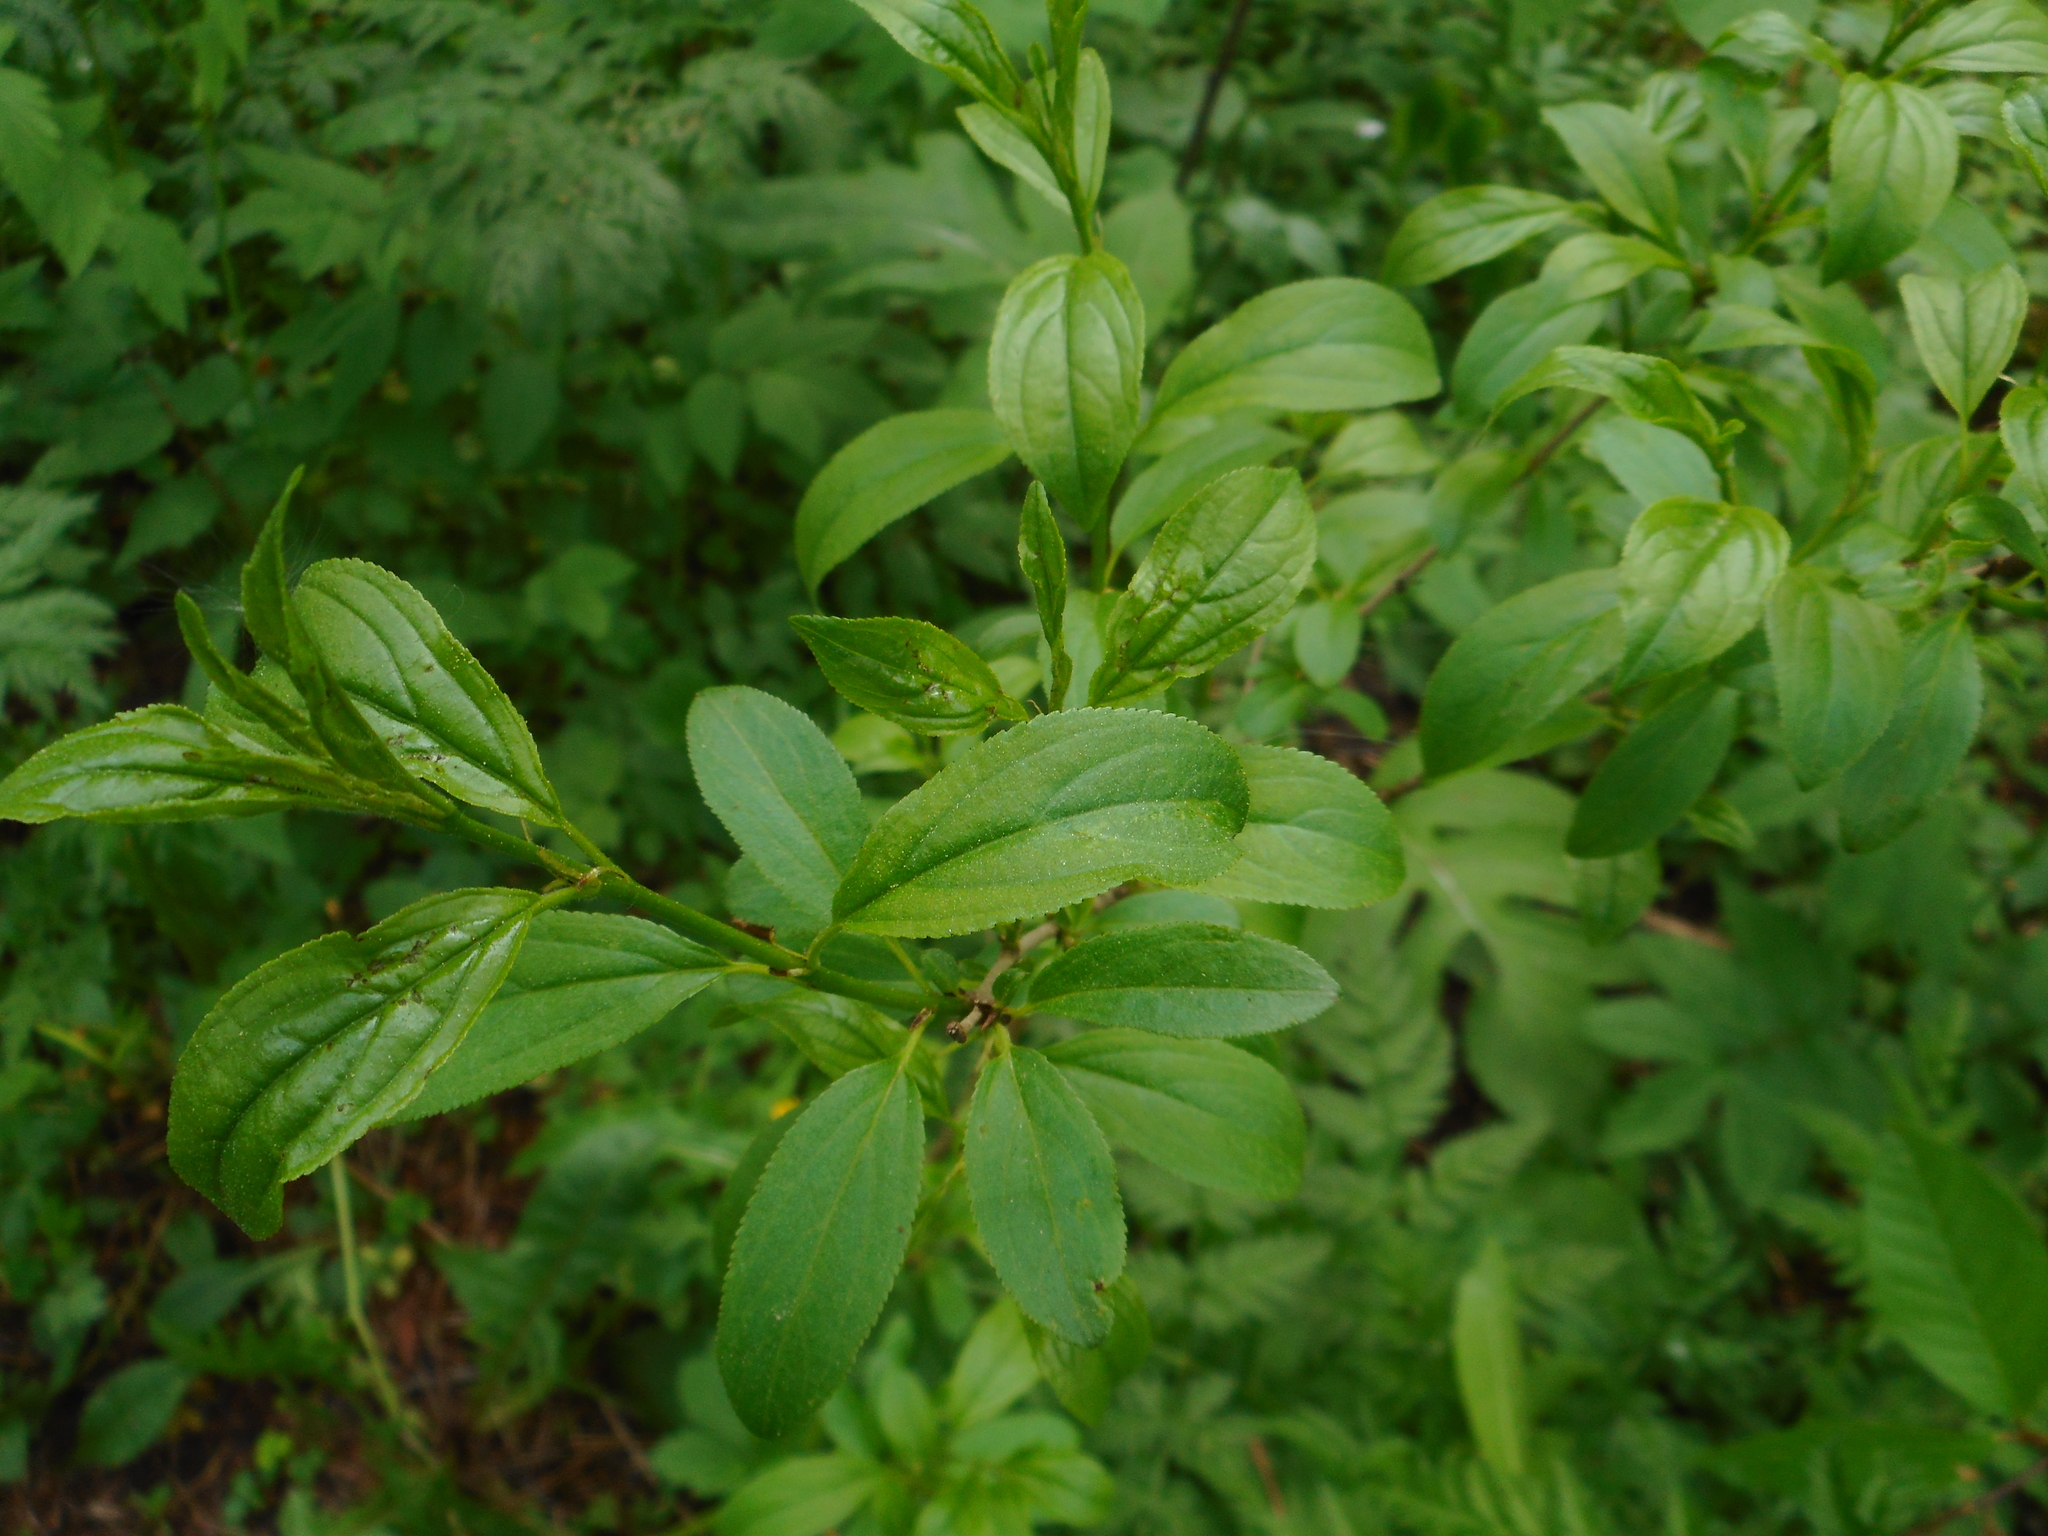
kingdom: Plantae
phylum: Tracheophyta
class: Magnoliopsida
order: Rosales
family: Rhamnaceae
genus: Rhamnus
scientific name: Rhamnus cathartica
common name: Common buckthorn
